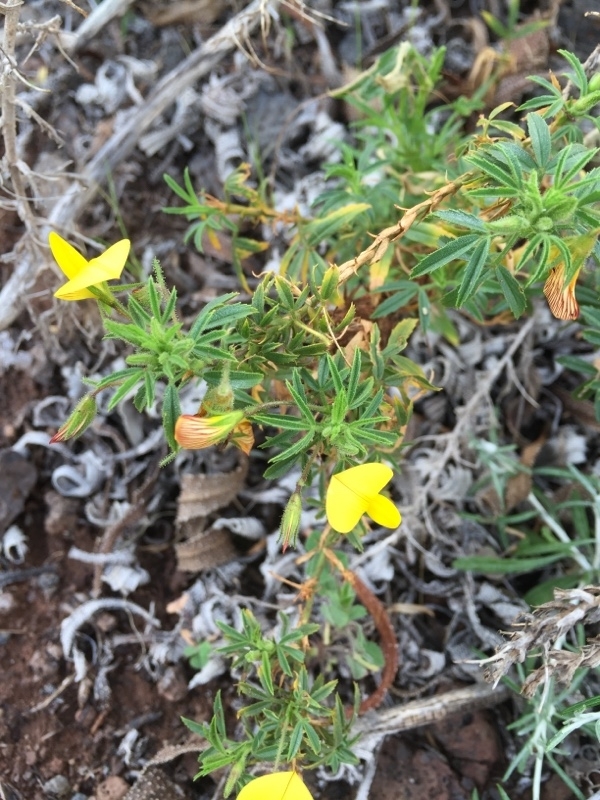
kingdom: Plantae
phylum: Tracheophyta
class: Magnoliopsida
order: Fabales
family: Fabaceae
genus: Ononis
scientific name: Ononis angustissima
